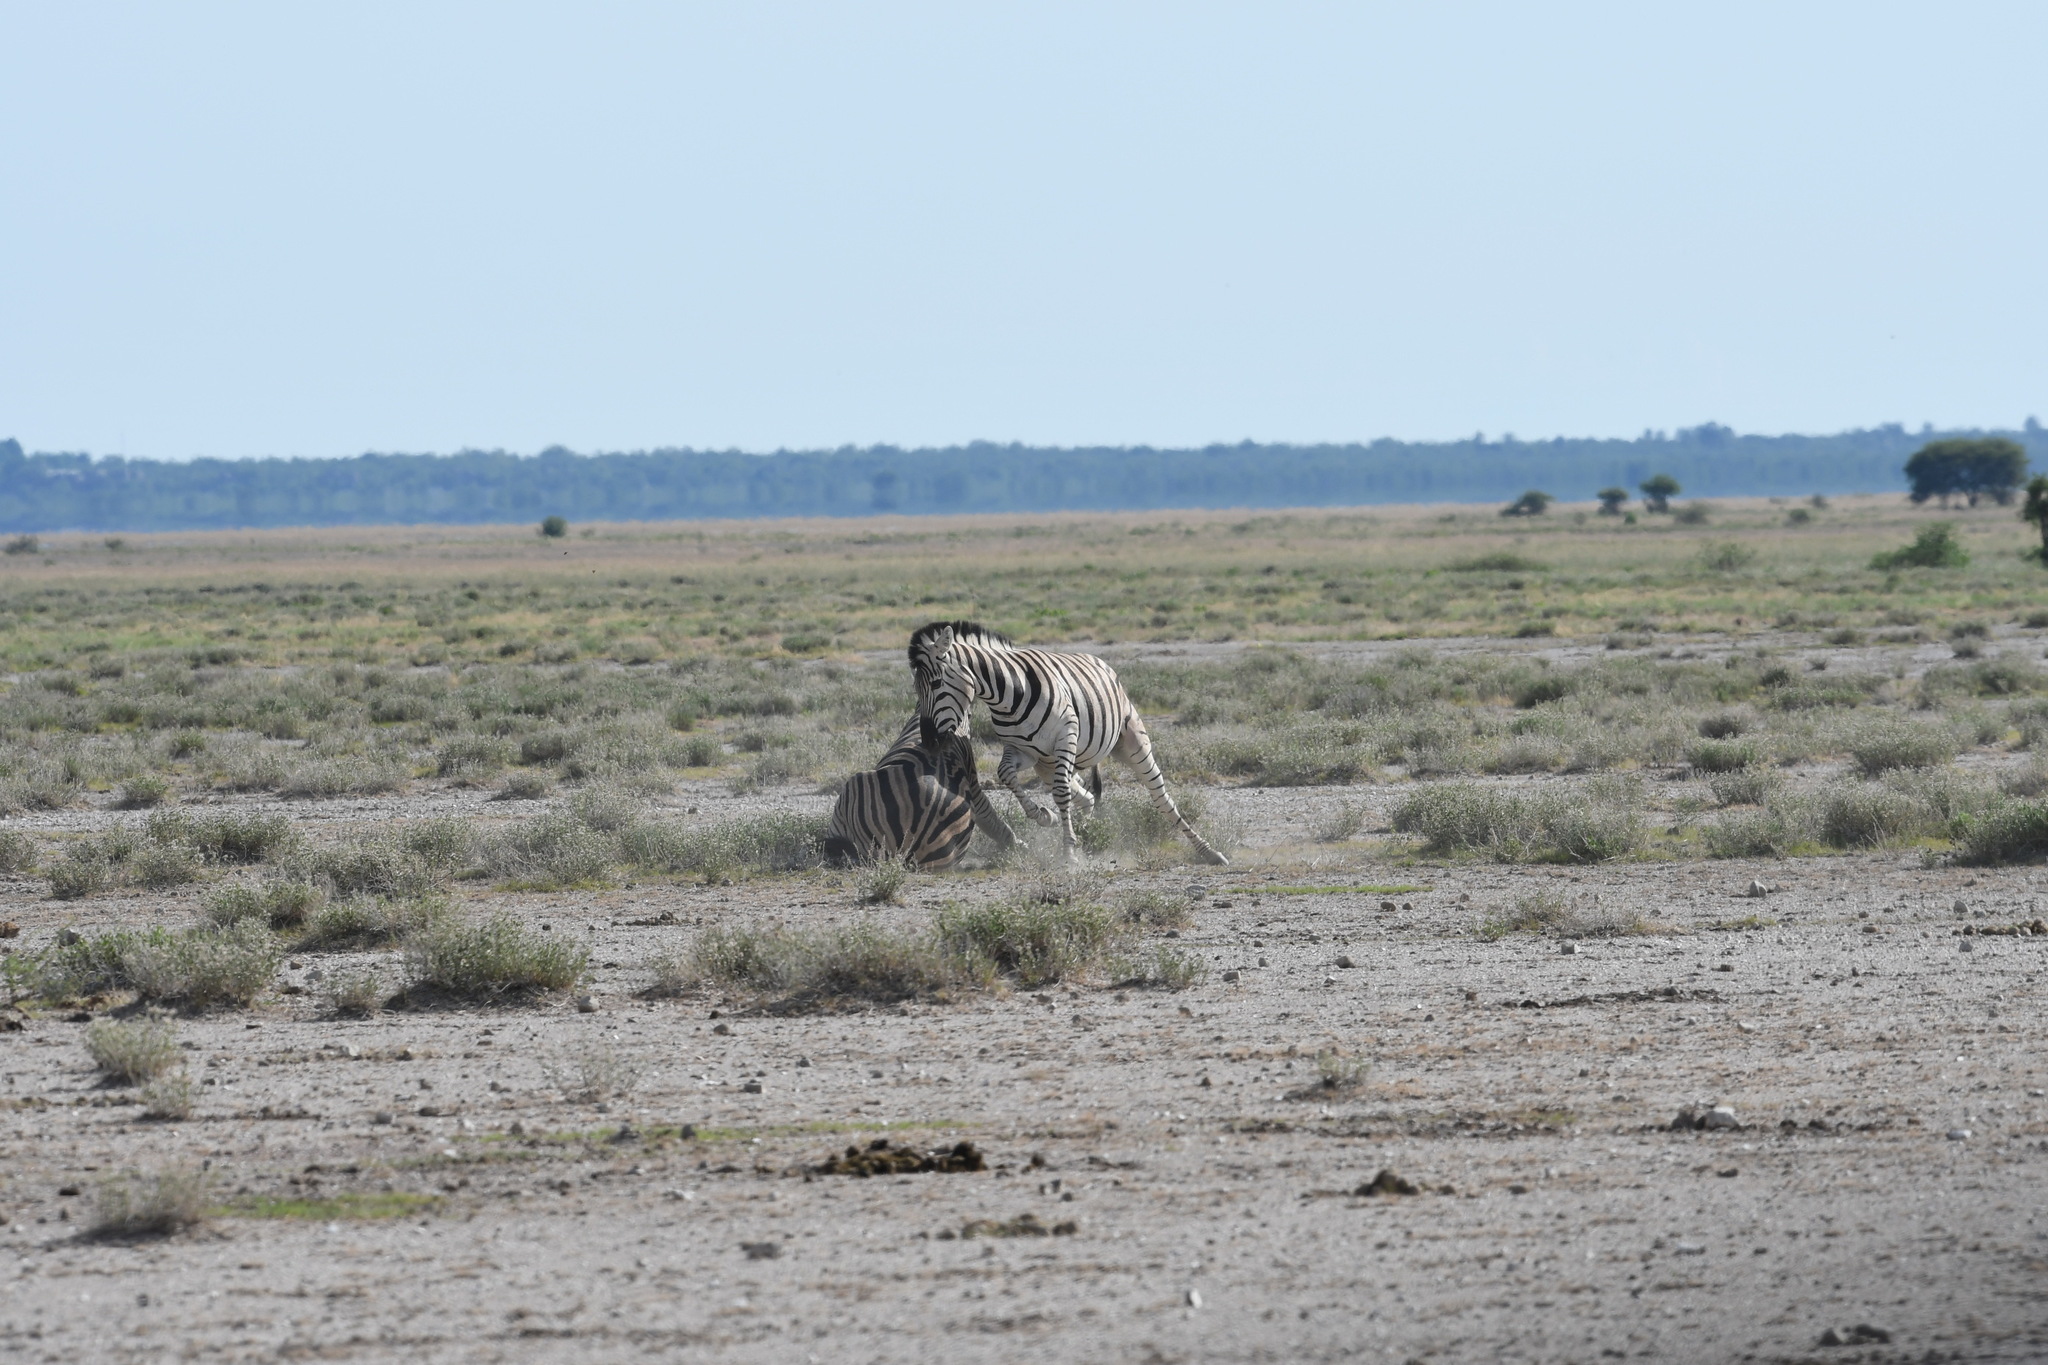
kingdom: Animalia
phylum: Chordata
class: Mammalia
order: Perissodactyla
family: Equidae
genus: Equus
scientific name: Equus quagga
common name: Plains zebra
